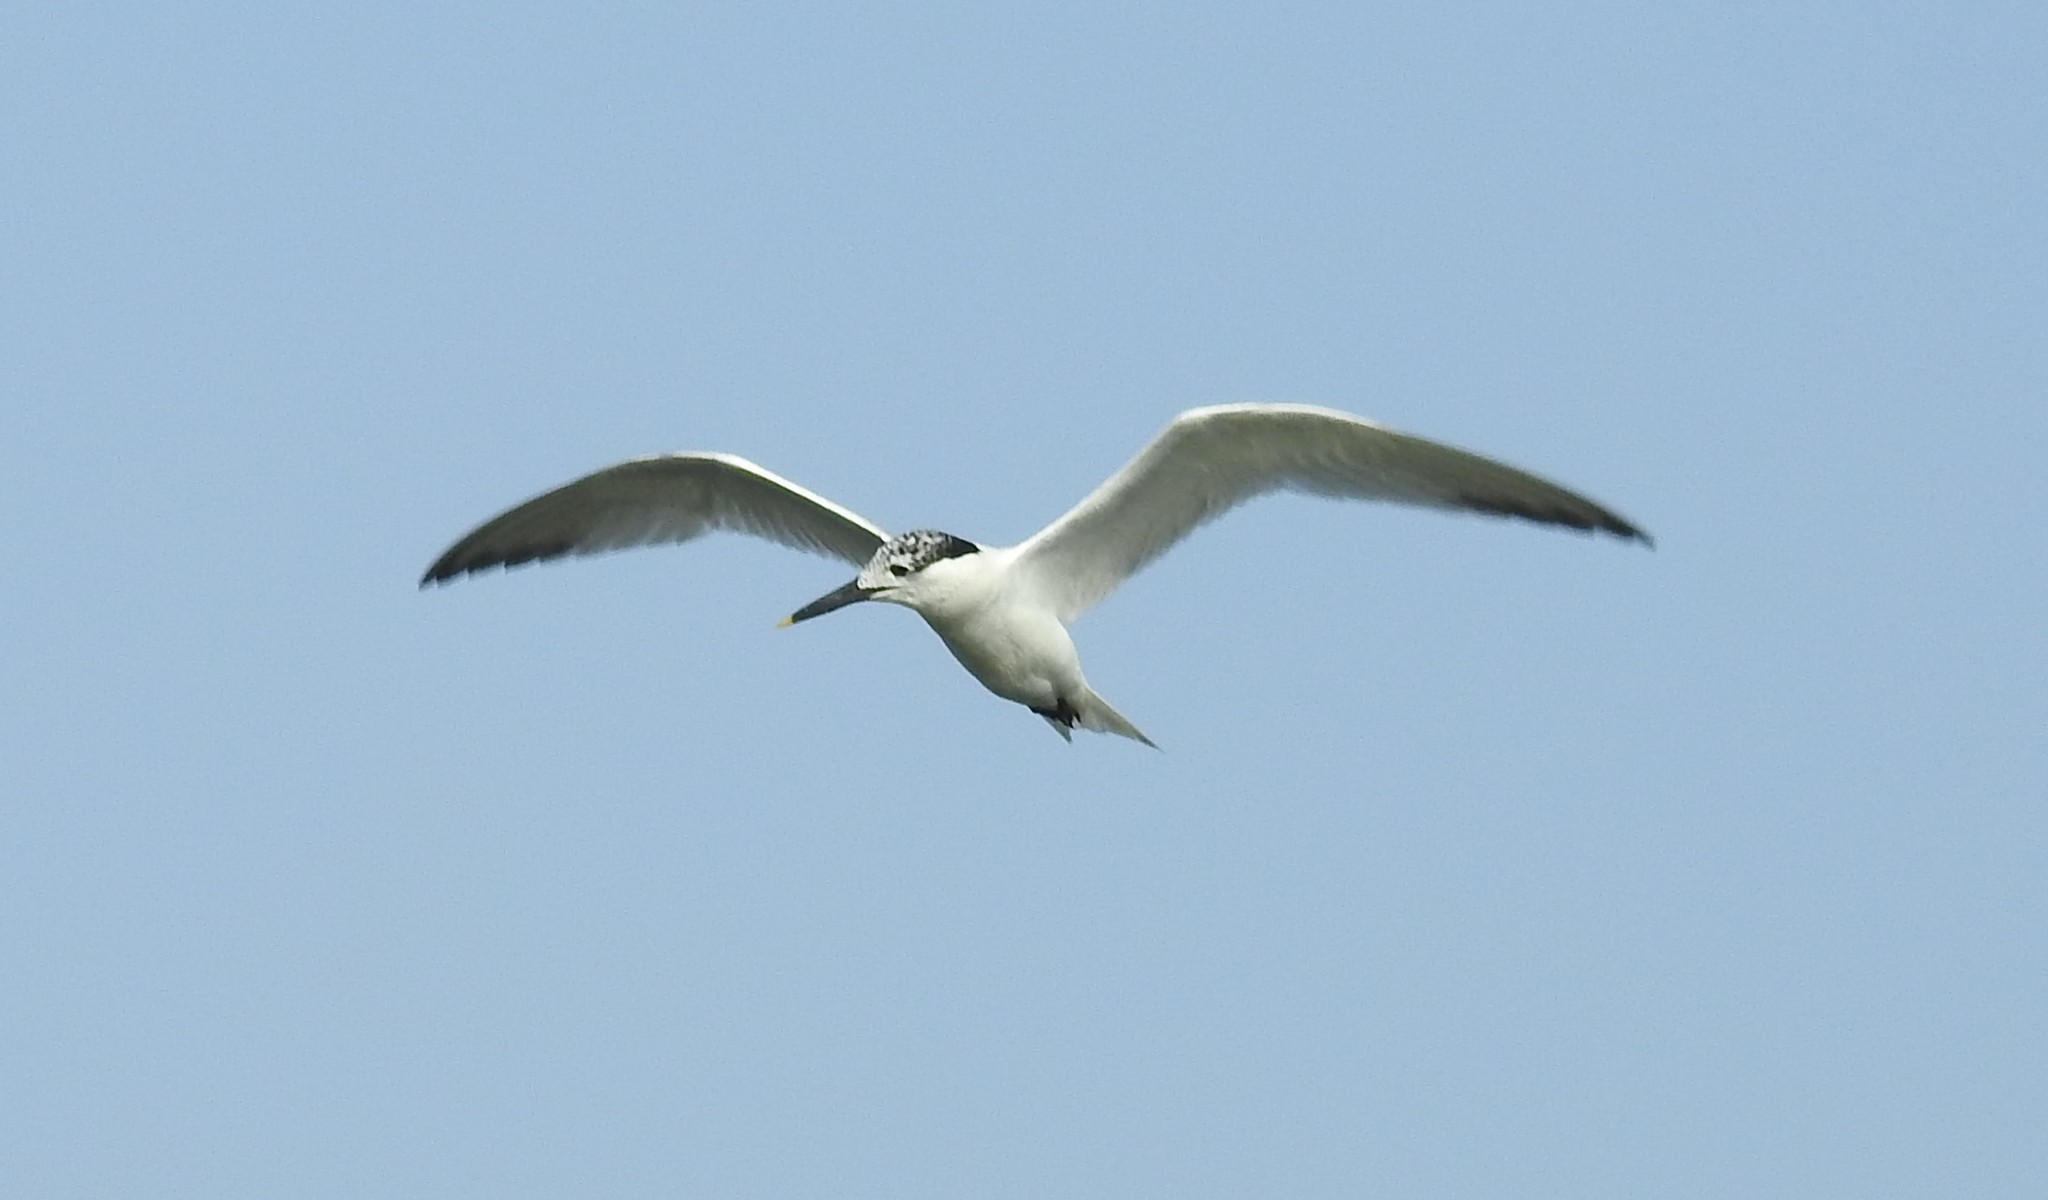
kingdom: Animalia
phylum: Chordata
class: Aves
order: Charadriiformes
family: Laridae
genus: Thalasseus
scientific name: Thalasseus sandvicensis
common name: Sandwich tern
